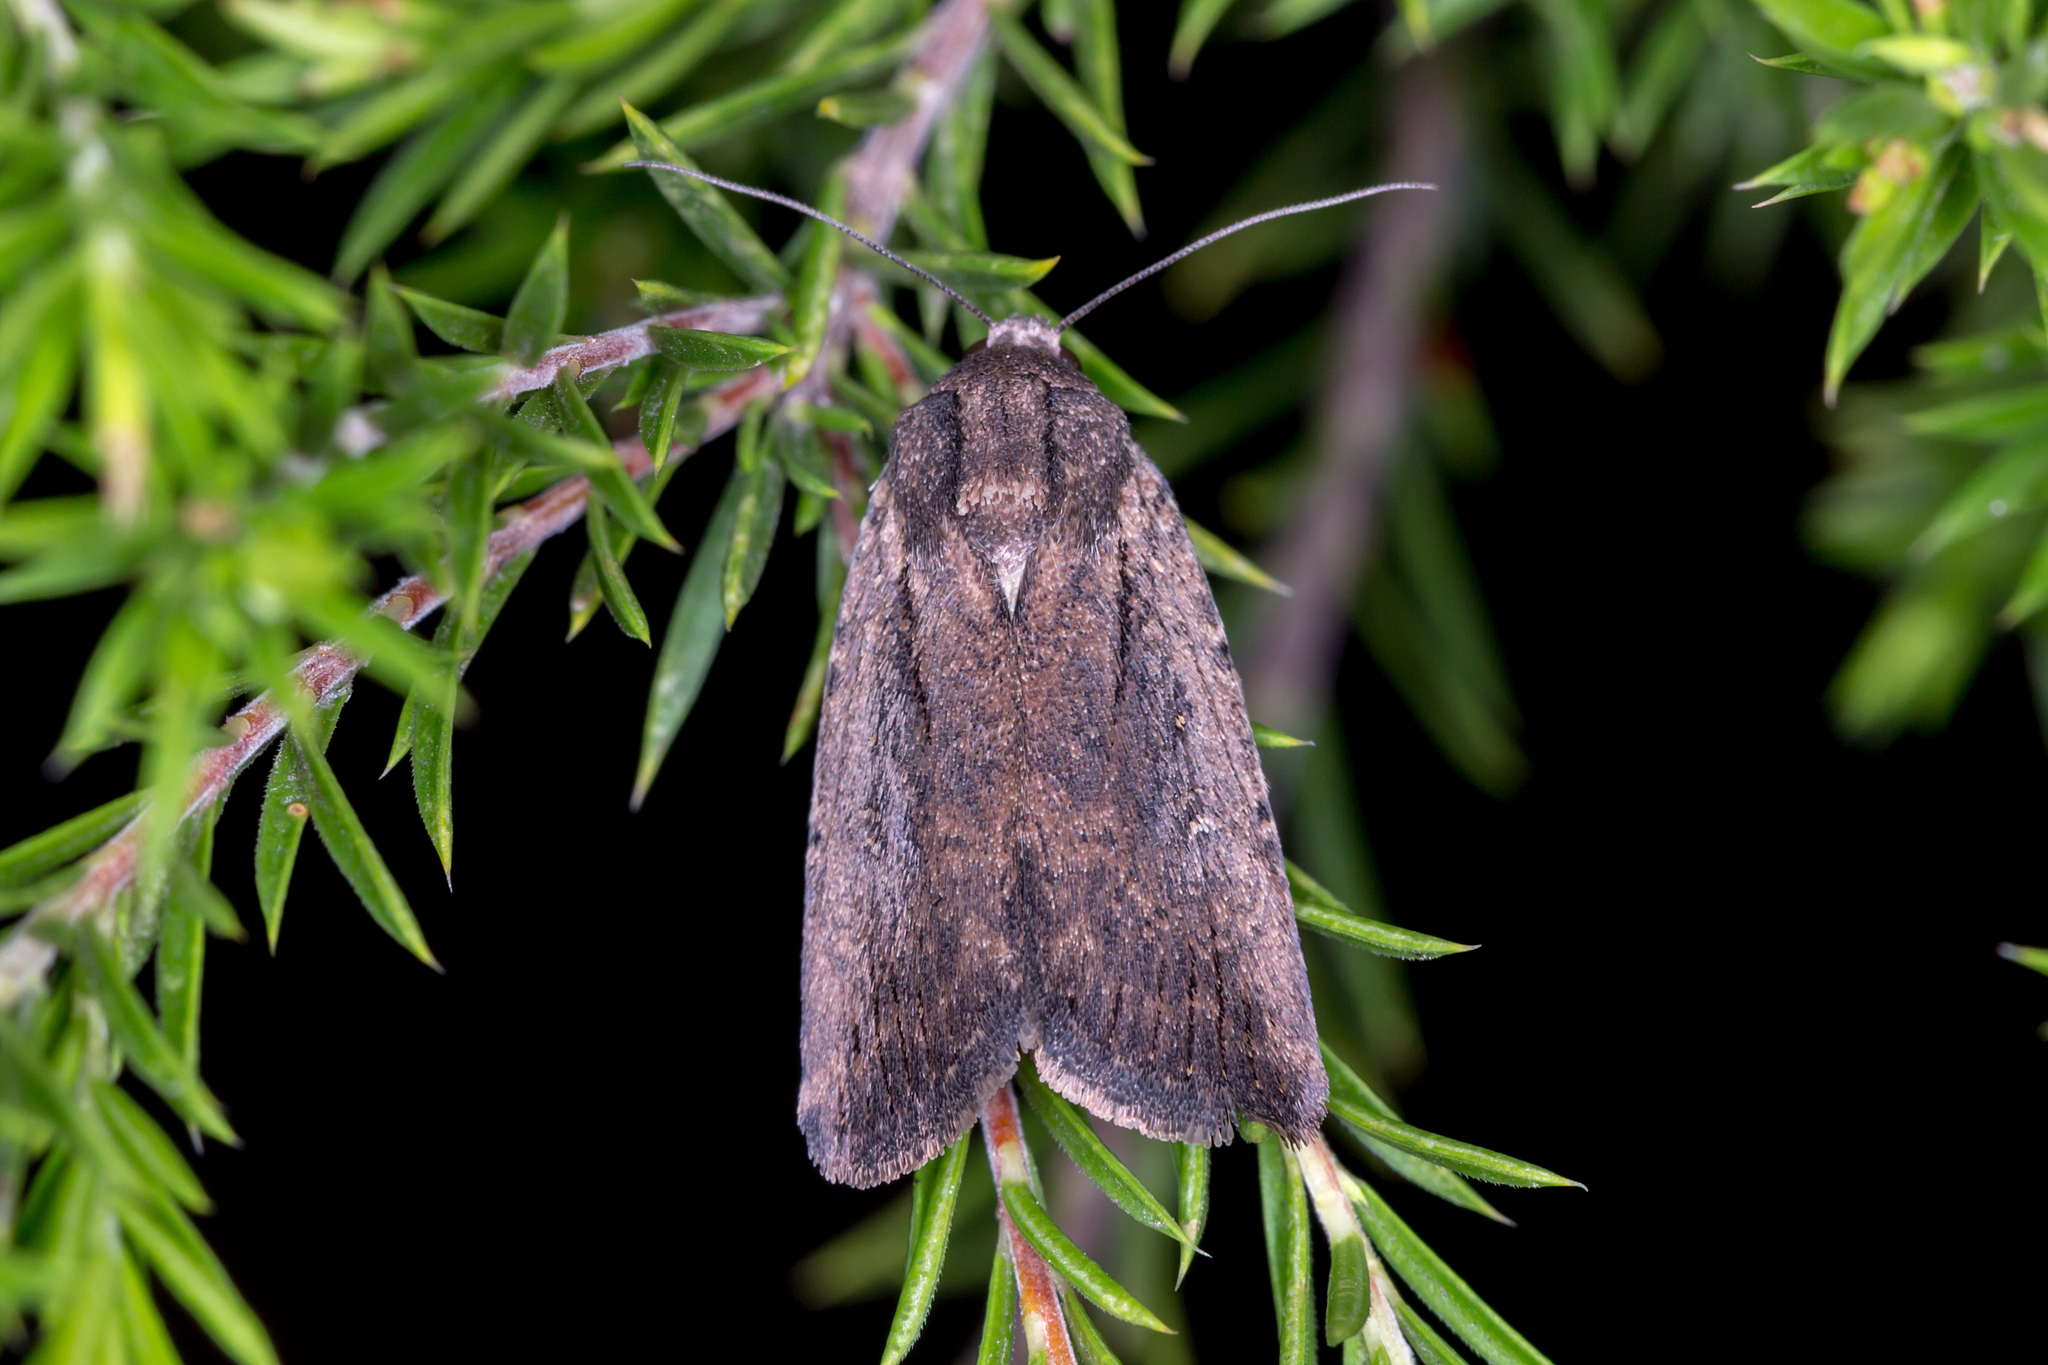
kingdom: Animalia
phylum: Arthropoda
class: Insecta
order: Lepidoptera
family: Noctuidae
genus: Proteuxoa
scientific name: Proteuxoa nyctereutica
